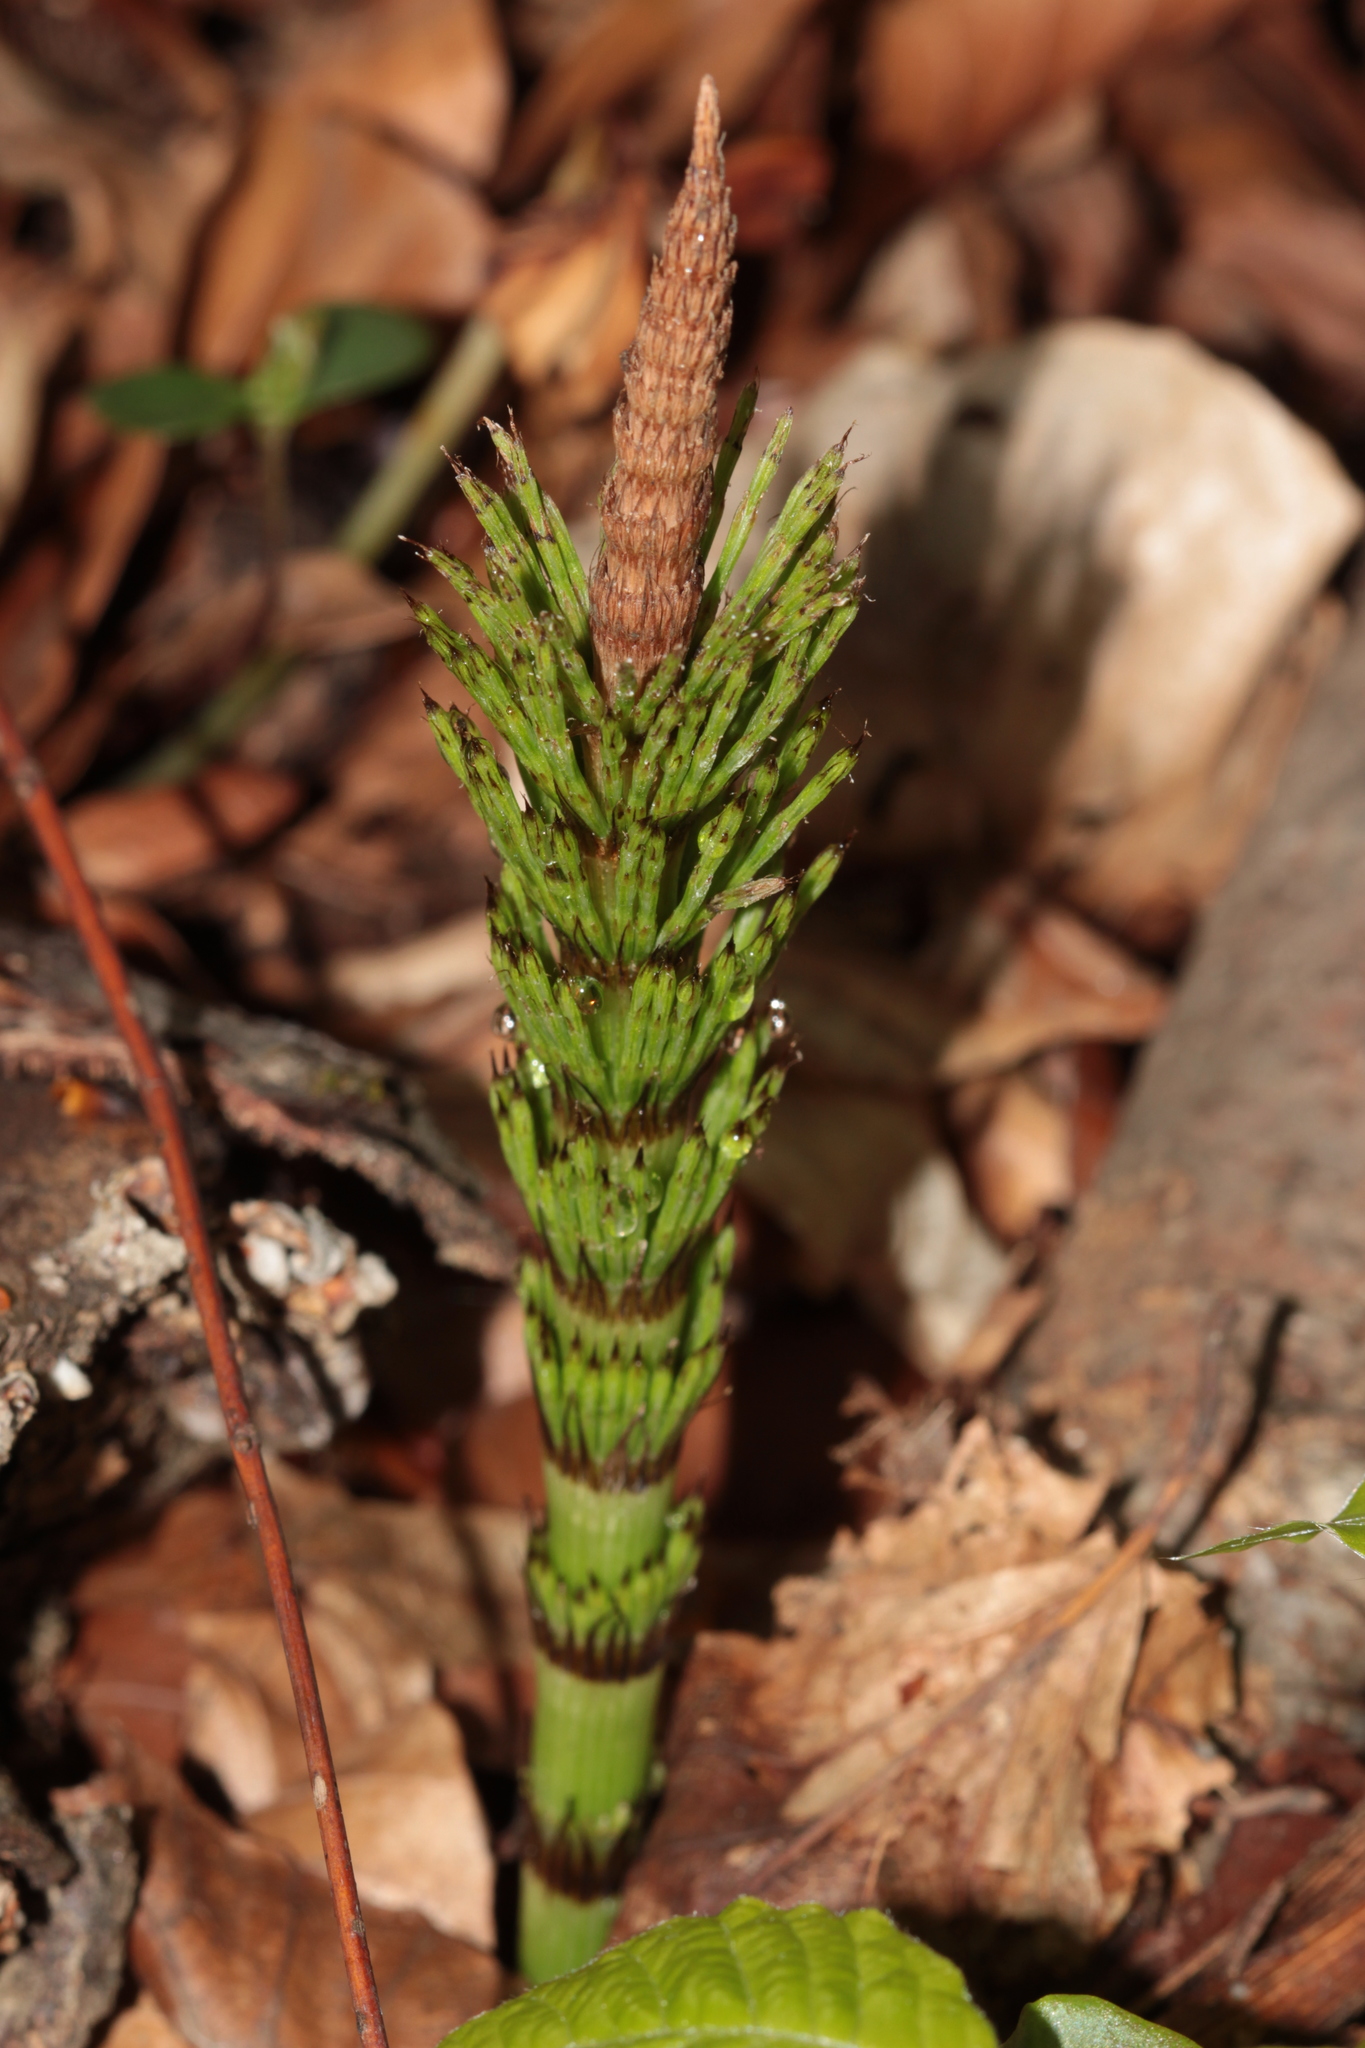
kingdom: Plantae
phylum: Tracheophyta
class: Polypodiopsida
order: Equisetales
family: Equisetaceae
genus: Equisetum
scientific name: Equisetum telmateia
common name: Great horsetail
